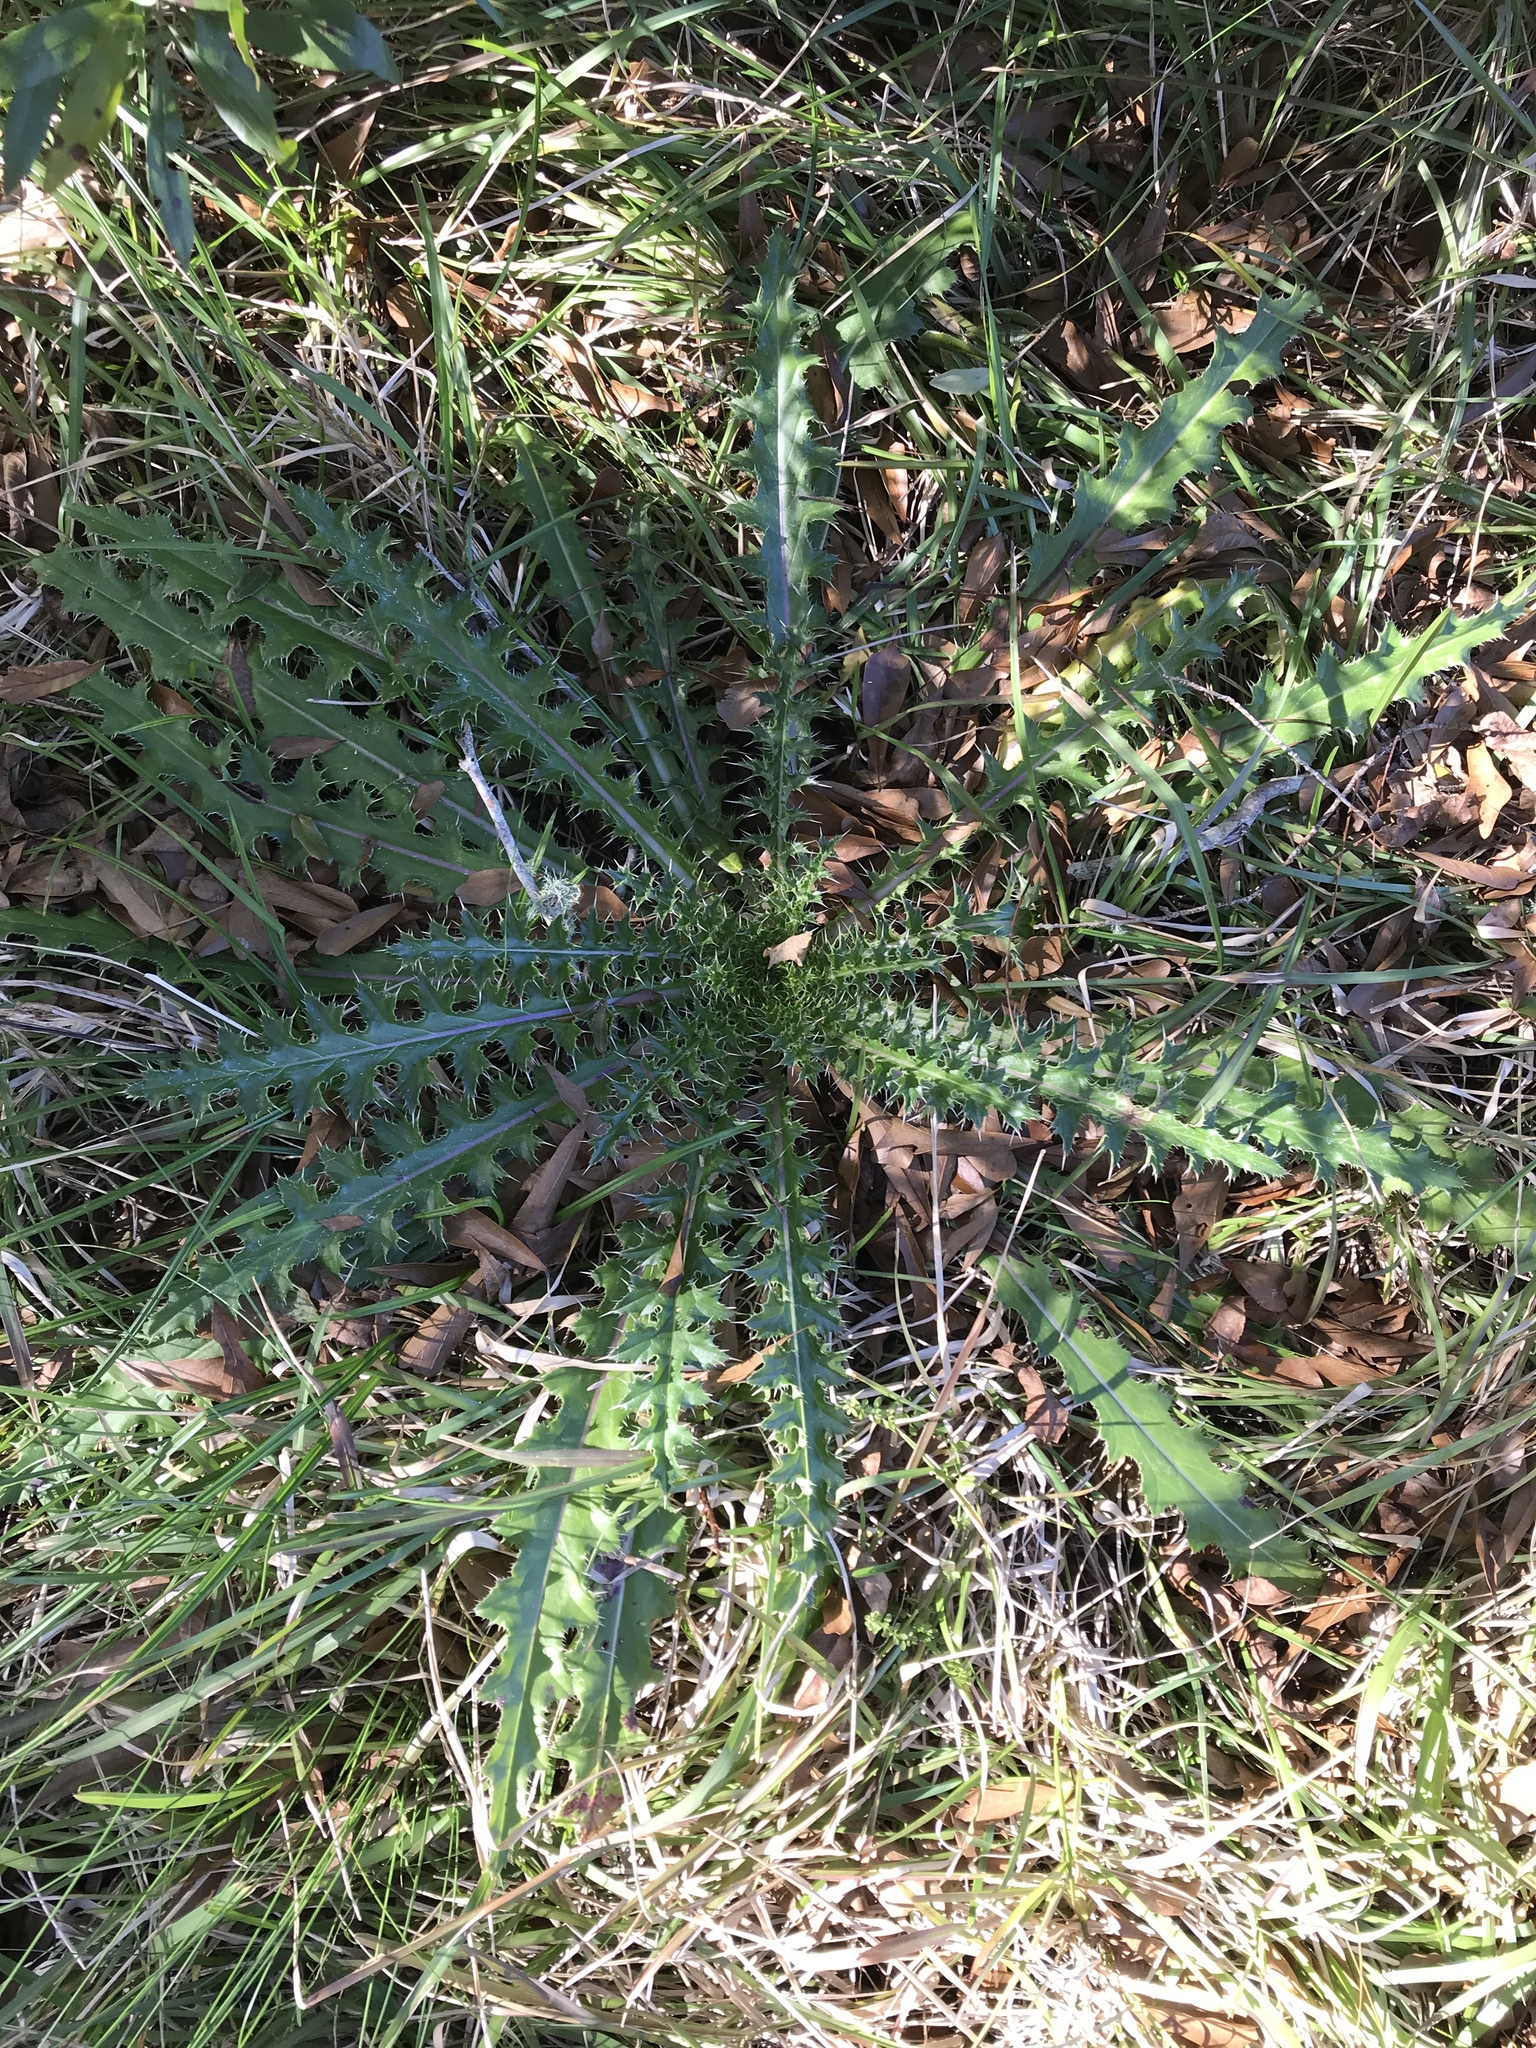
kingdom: Plantae
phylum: Tracheophyta
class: Magnoliopsida
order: Asterales
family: Asteraceae
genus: Cirsium
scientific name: Cirsium horridulum
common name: Bristly thistle
